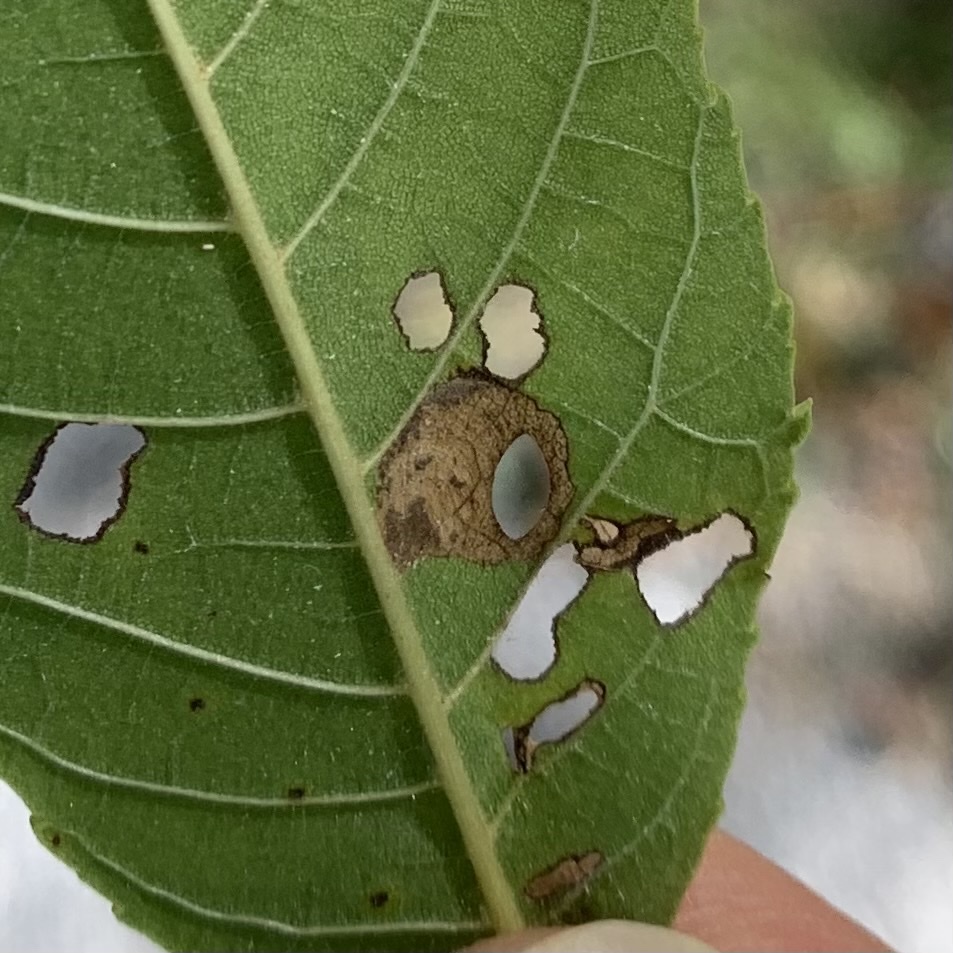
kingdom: Animalia
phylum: Arthropoda
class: Insecta
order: Lepidoptera
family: Heliozelidae
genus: Coptodisca
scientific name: Coptodisca lucifluella
